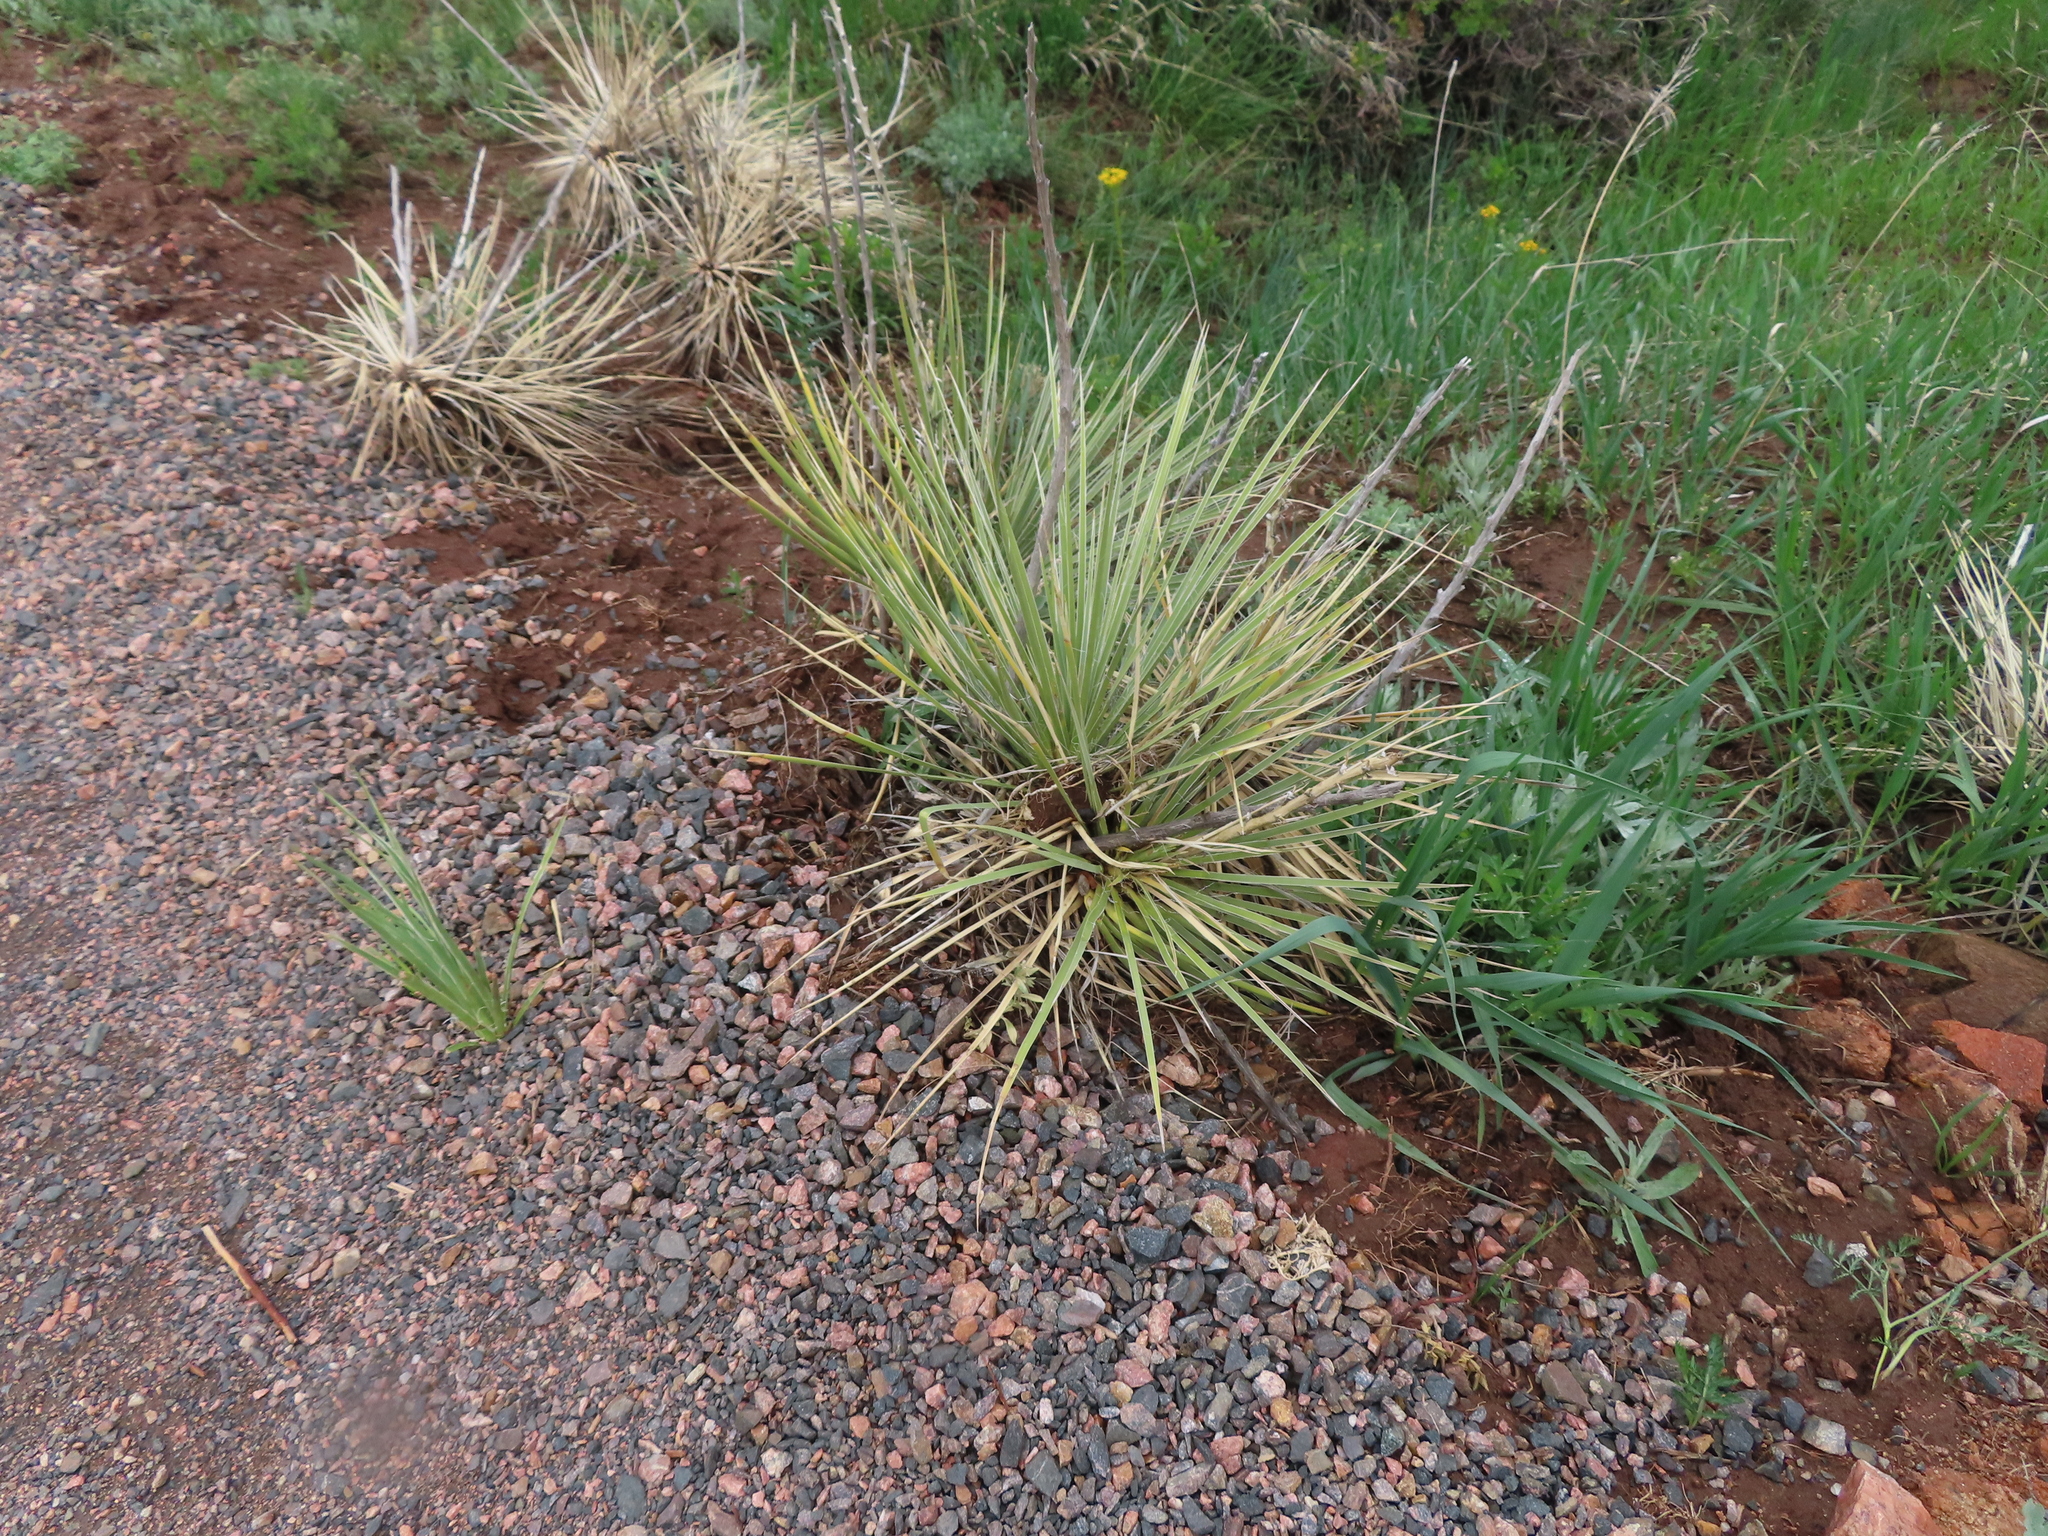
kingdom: Plantae
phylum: Tracheophyta
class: Liliopsida
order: Asparagales
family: Asparagaceae
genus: Yucca
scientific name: Yucca glauca
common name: Great plains yucca
